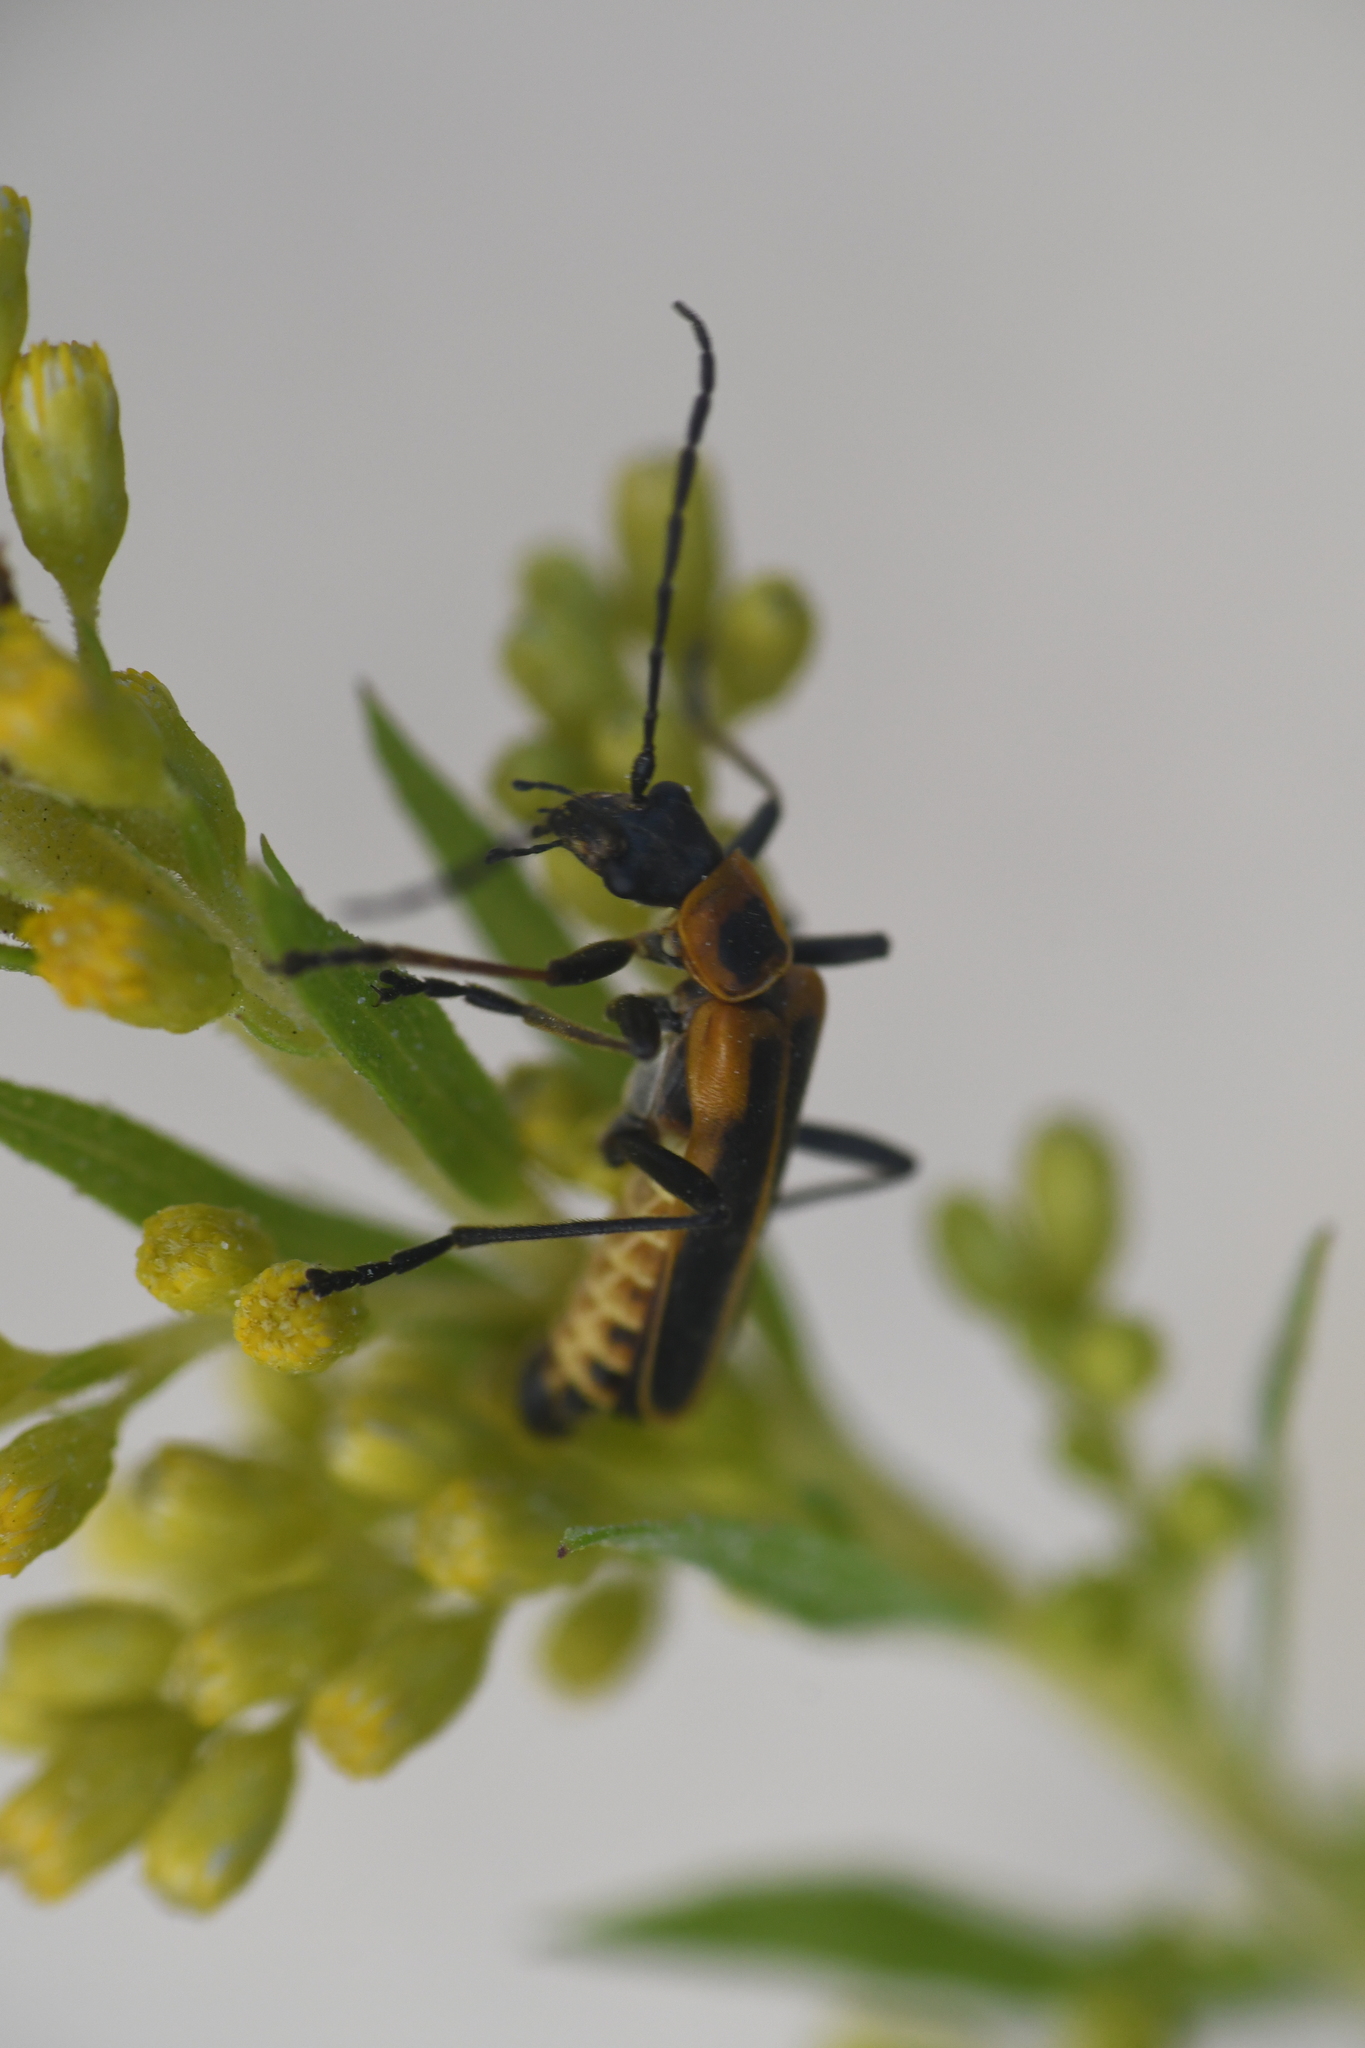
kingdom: Animalia
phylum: Arthropoda
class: Insecta
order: Coleoptera
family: Cantharidae
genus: Chauliognathus
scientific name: Chauliognathus pensylvanicus
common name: Goldenrod soldier beetle
